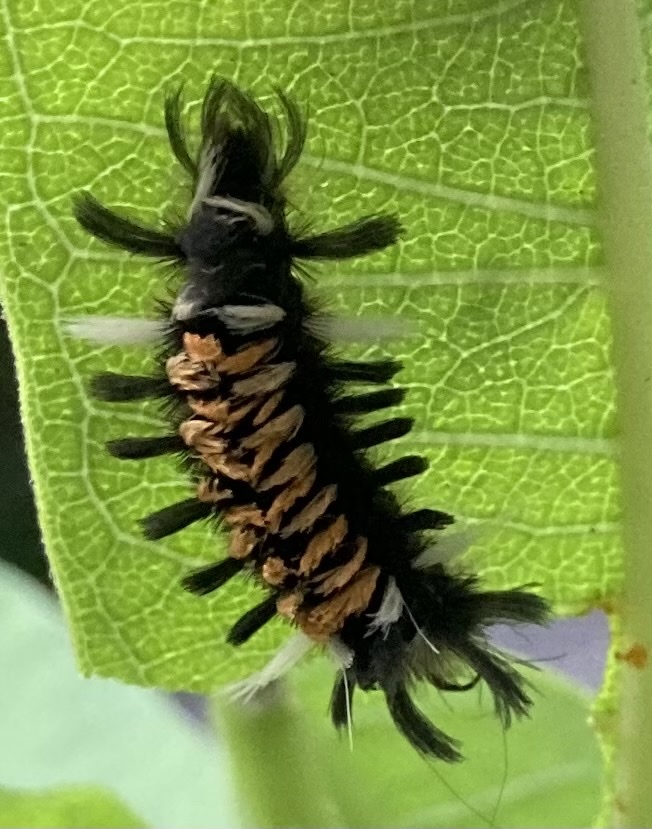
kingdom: Animalia
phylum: Arthropoda
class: Insecta
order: Lepidoptera
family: Erebidae
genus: Euchaetes
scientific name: Euchaetes egle
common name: Milkweed tussock moth
